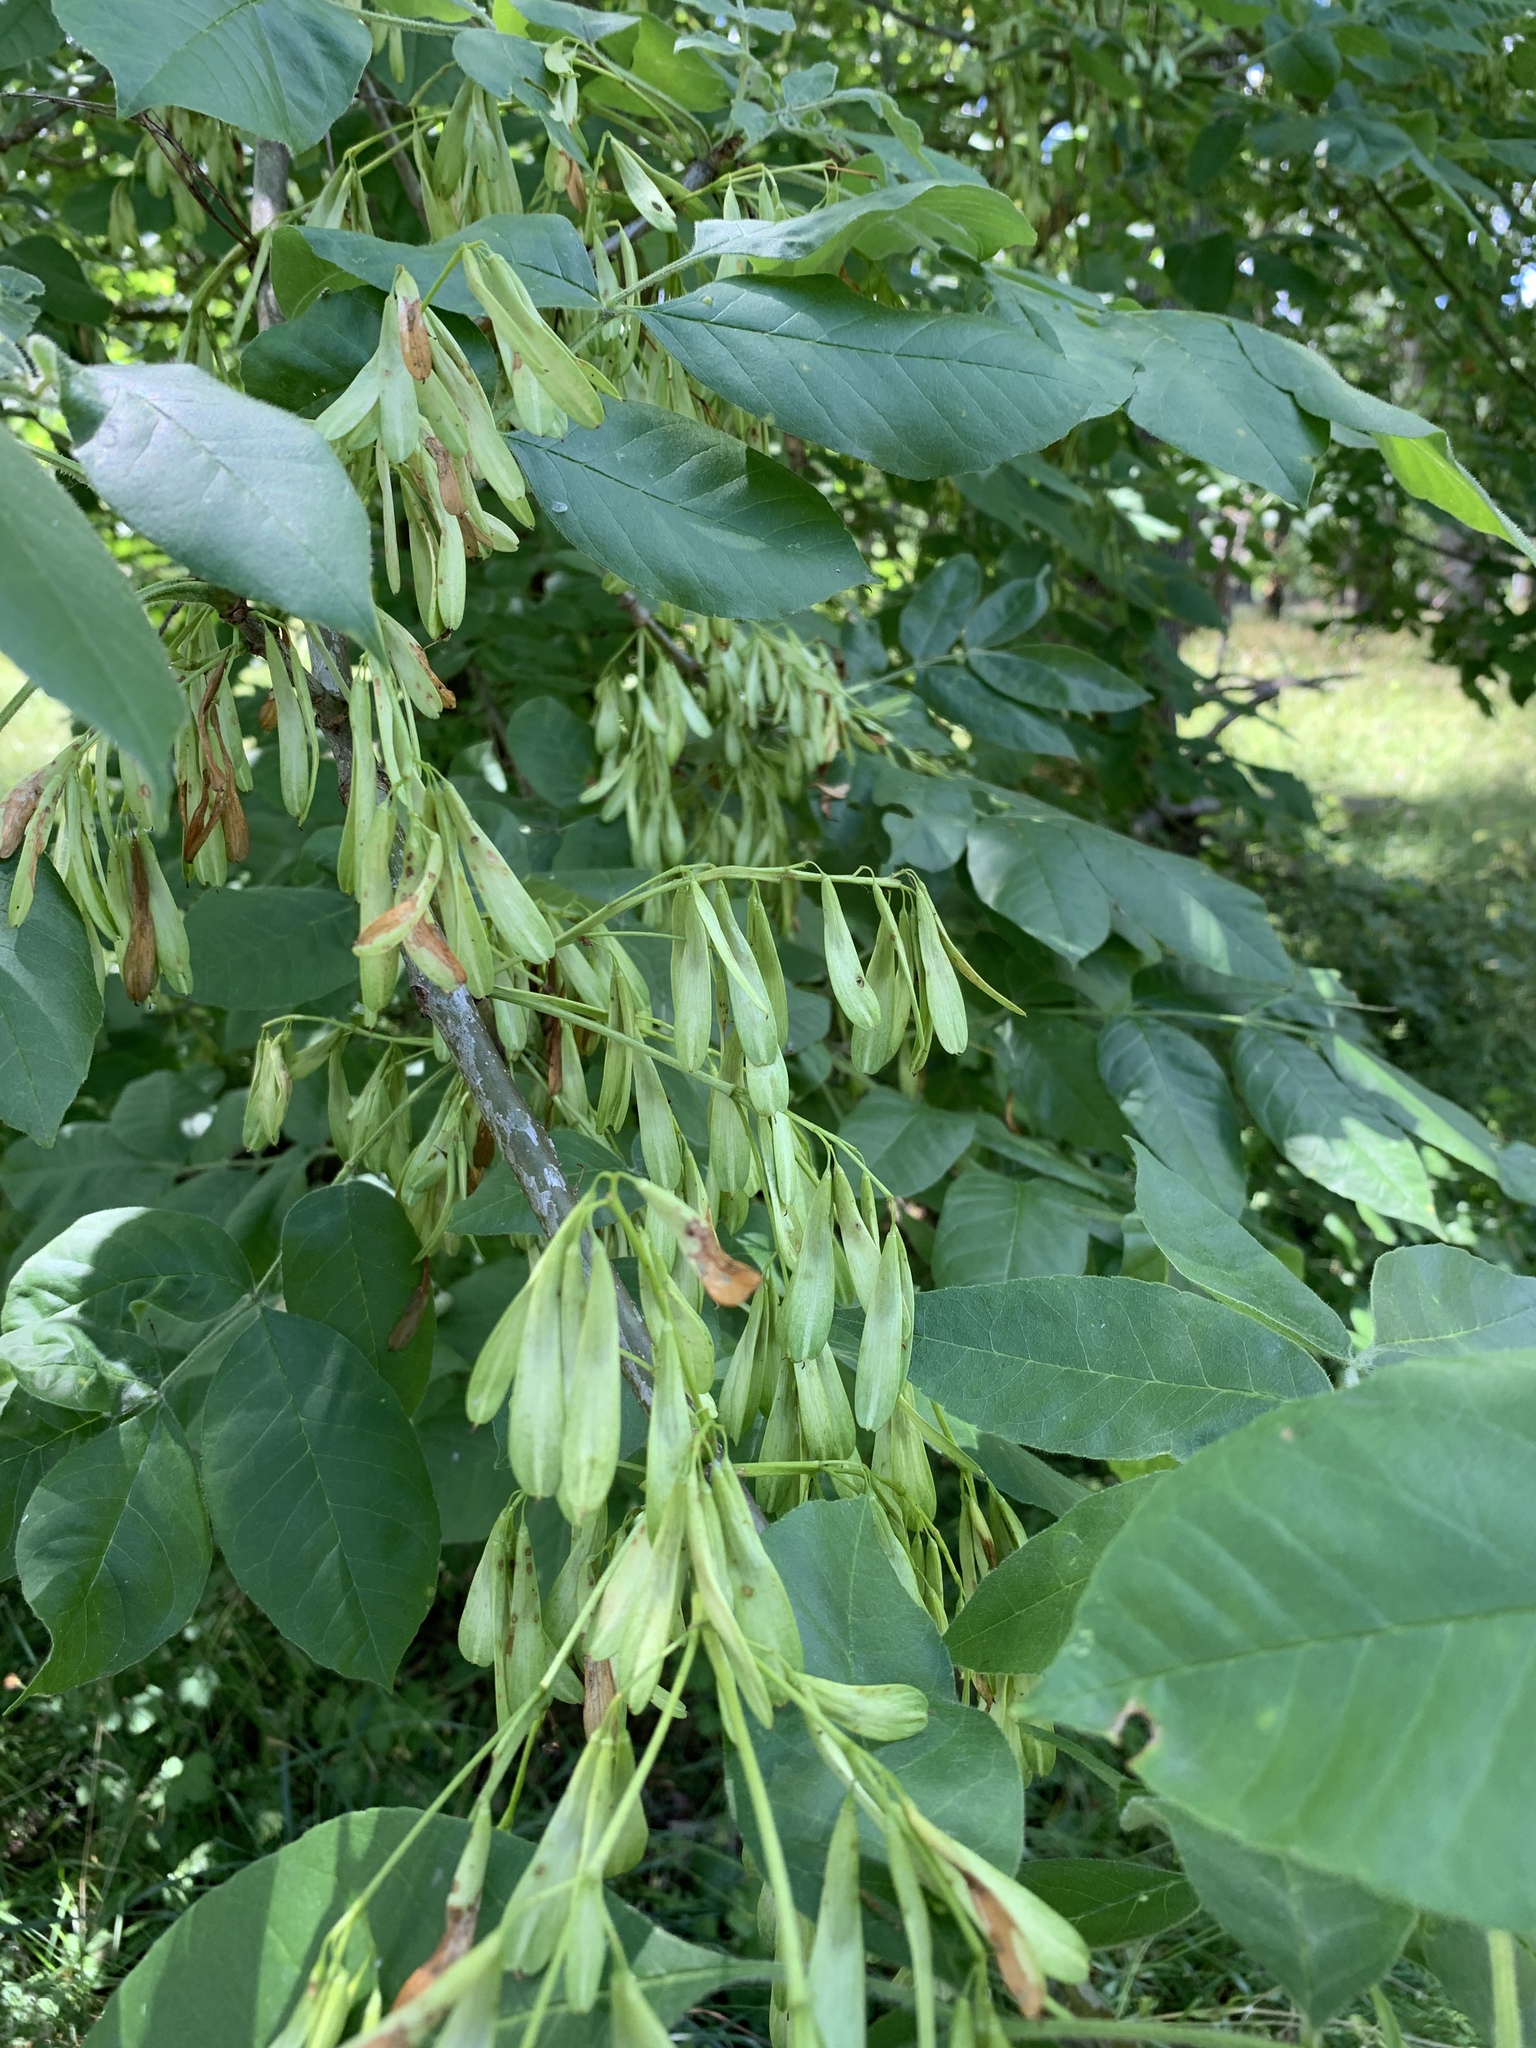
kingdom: Plantae
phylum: Tracheophyta
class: Magnoliopsida
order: Lamiales
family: Oleaceae
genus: Fraxinus
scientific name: Fraxinus latifolia
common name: Oregon ash
